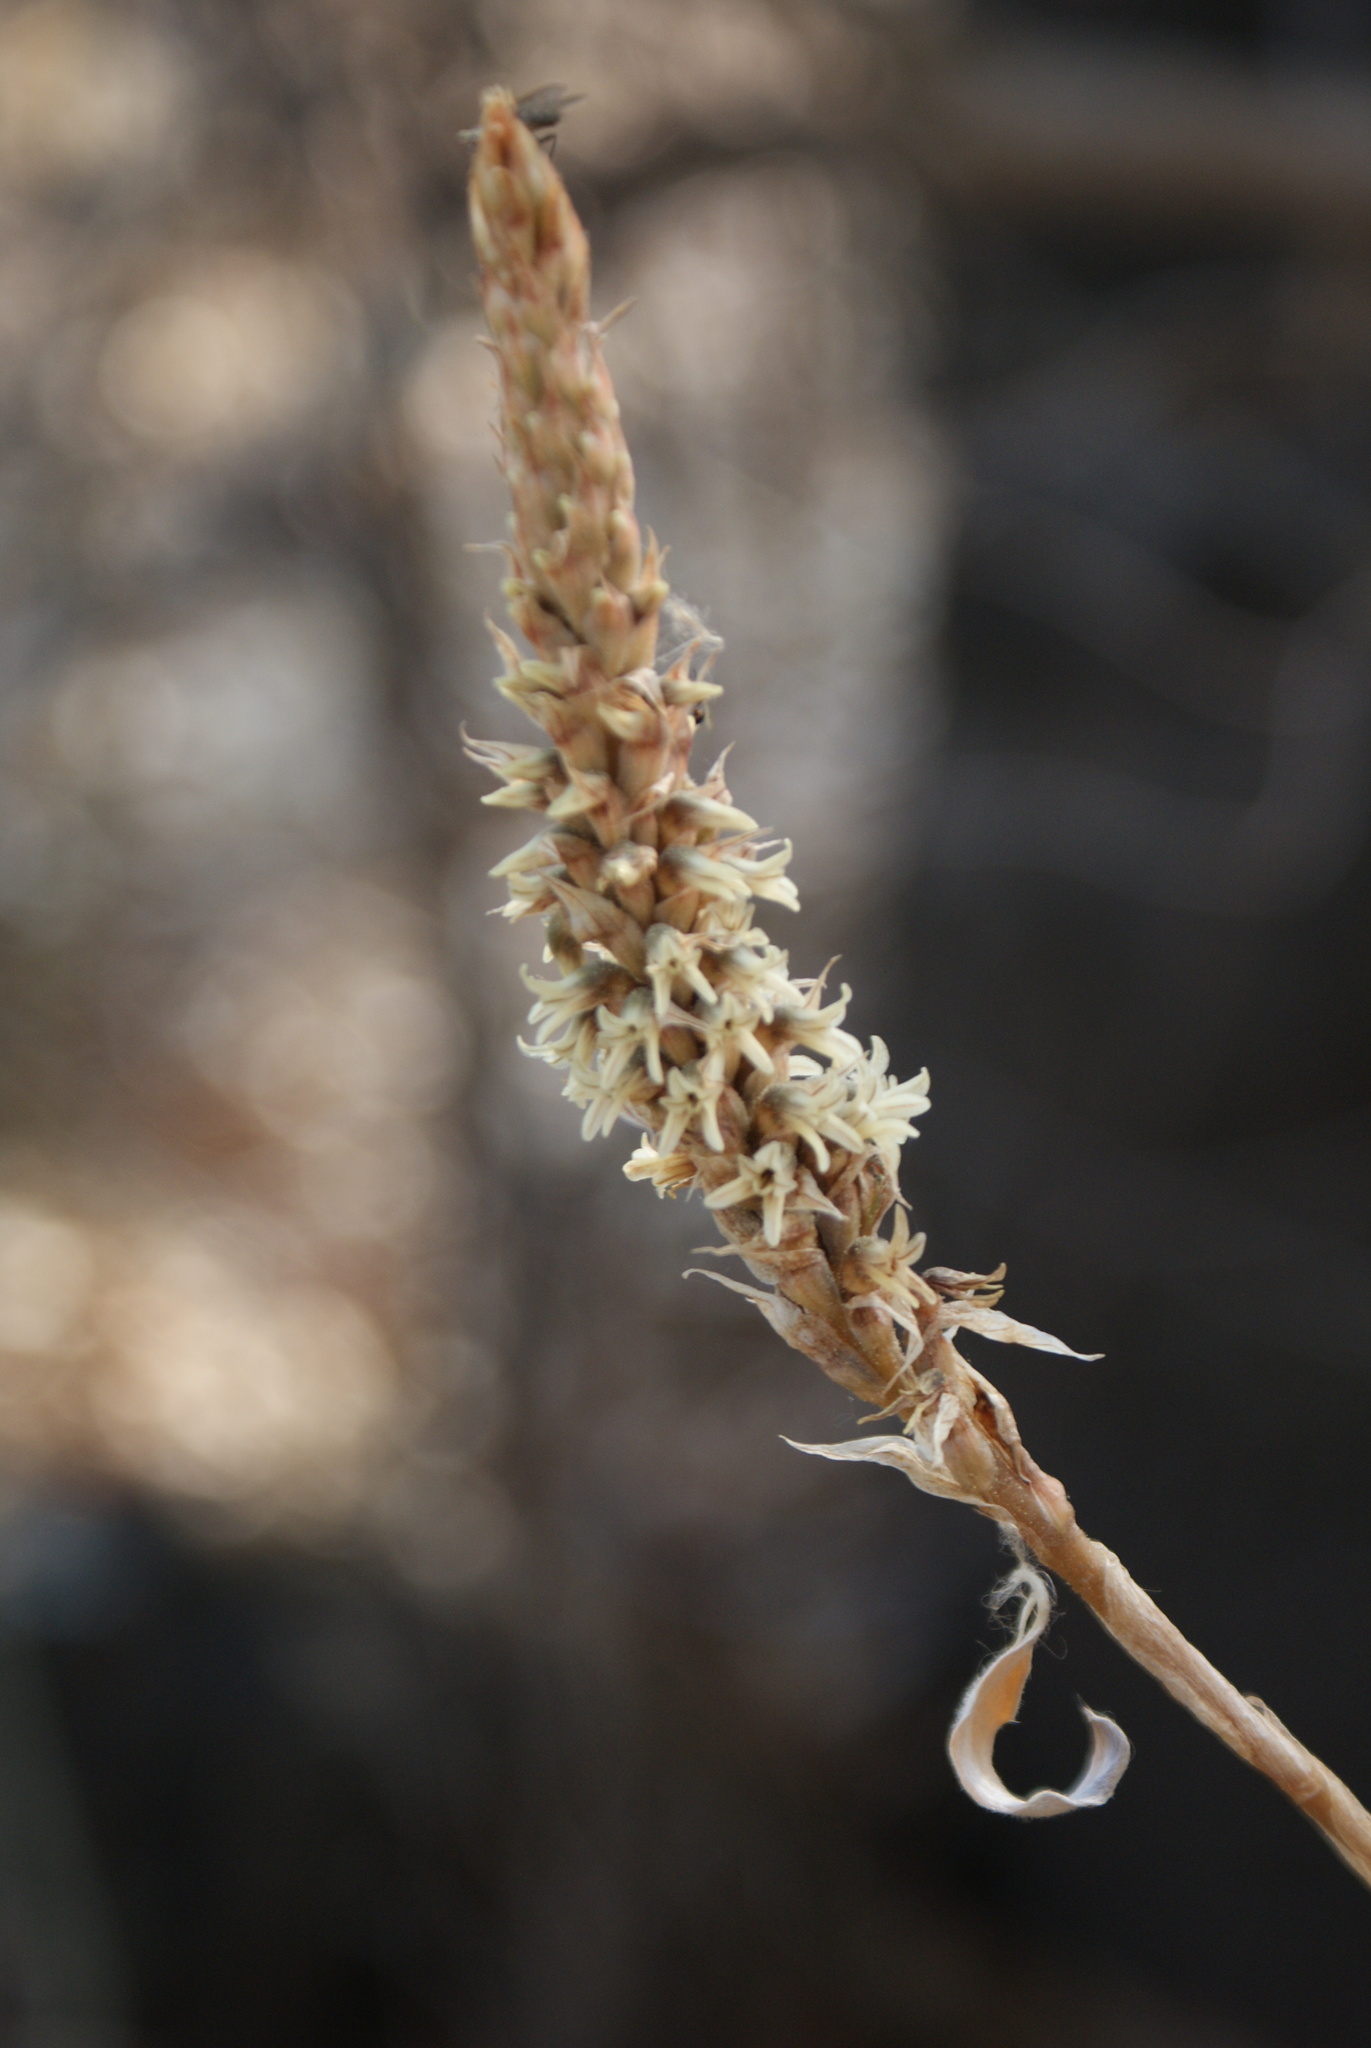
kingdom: Plantae
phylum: Tracheophyta
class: Liliopsida
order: Asparagales
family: Orchidaceae
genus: Aulosepalum
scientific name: Aulosepalum pyramidale
